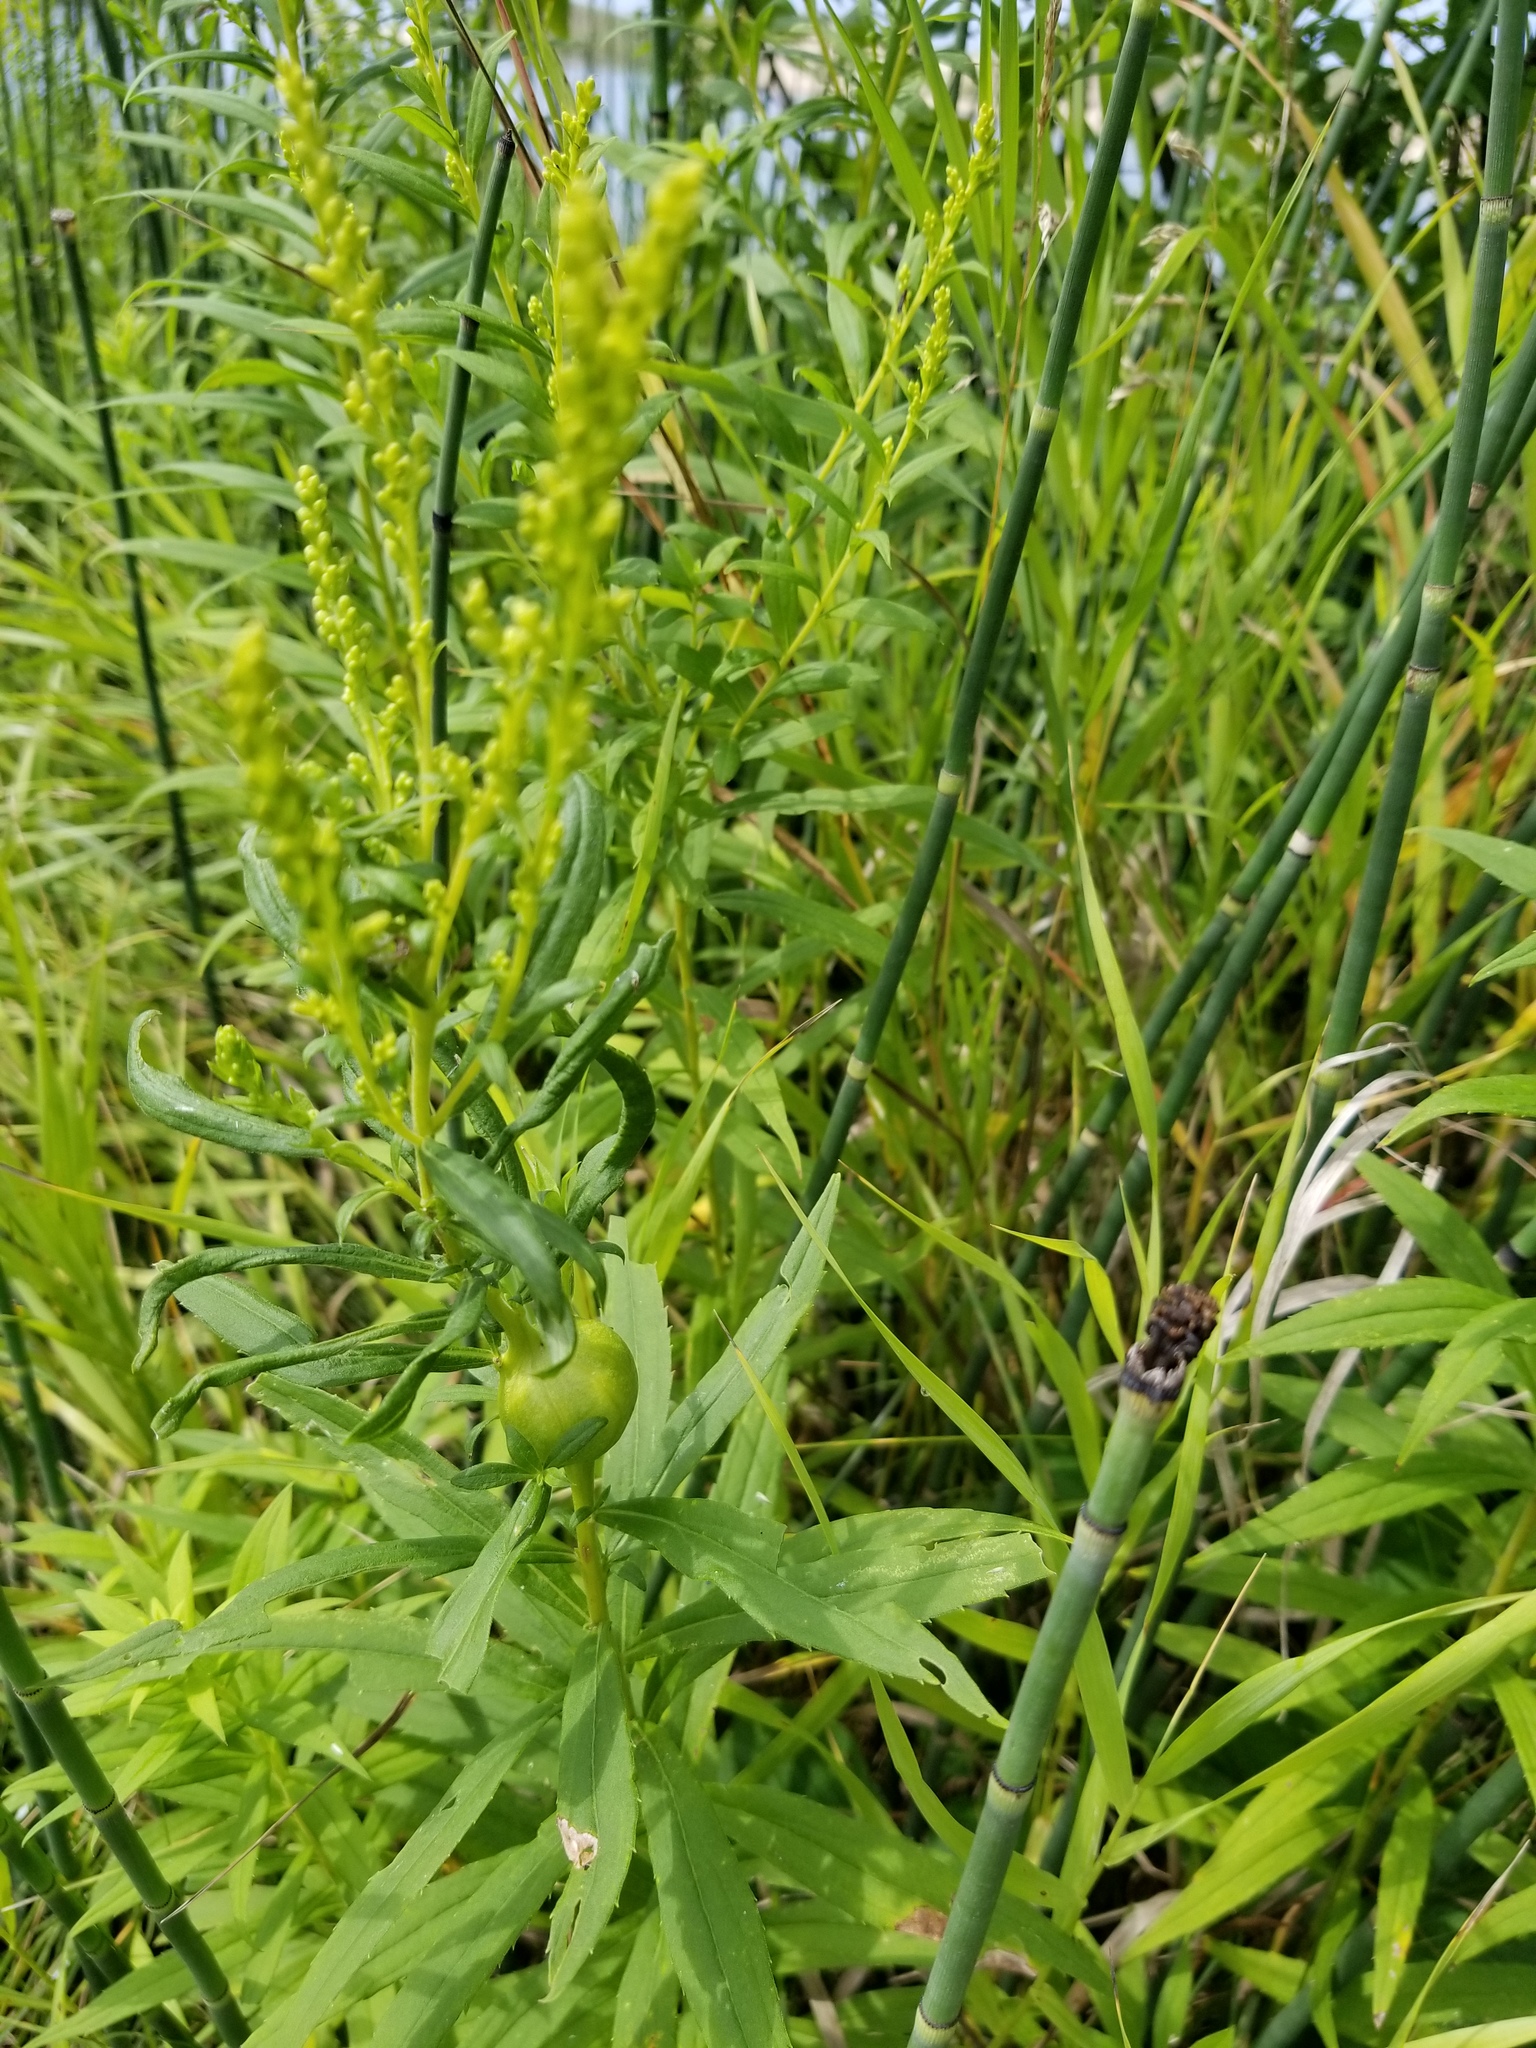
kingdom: Animalia
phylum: Arthropoda
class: Insecta
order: Diptera
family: Tephritidae
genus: Eurosta
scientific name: Eurosta solidaginis
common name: Goldenrod gall fly
